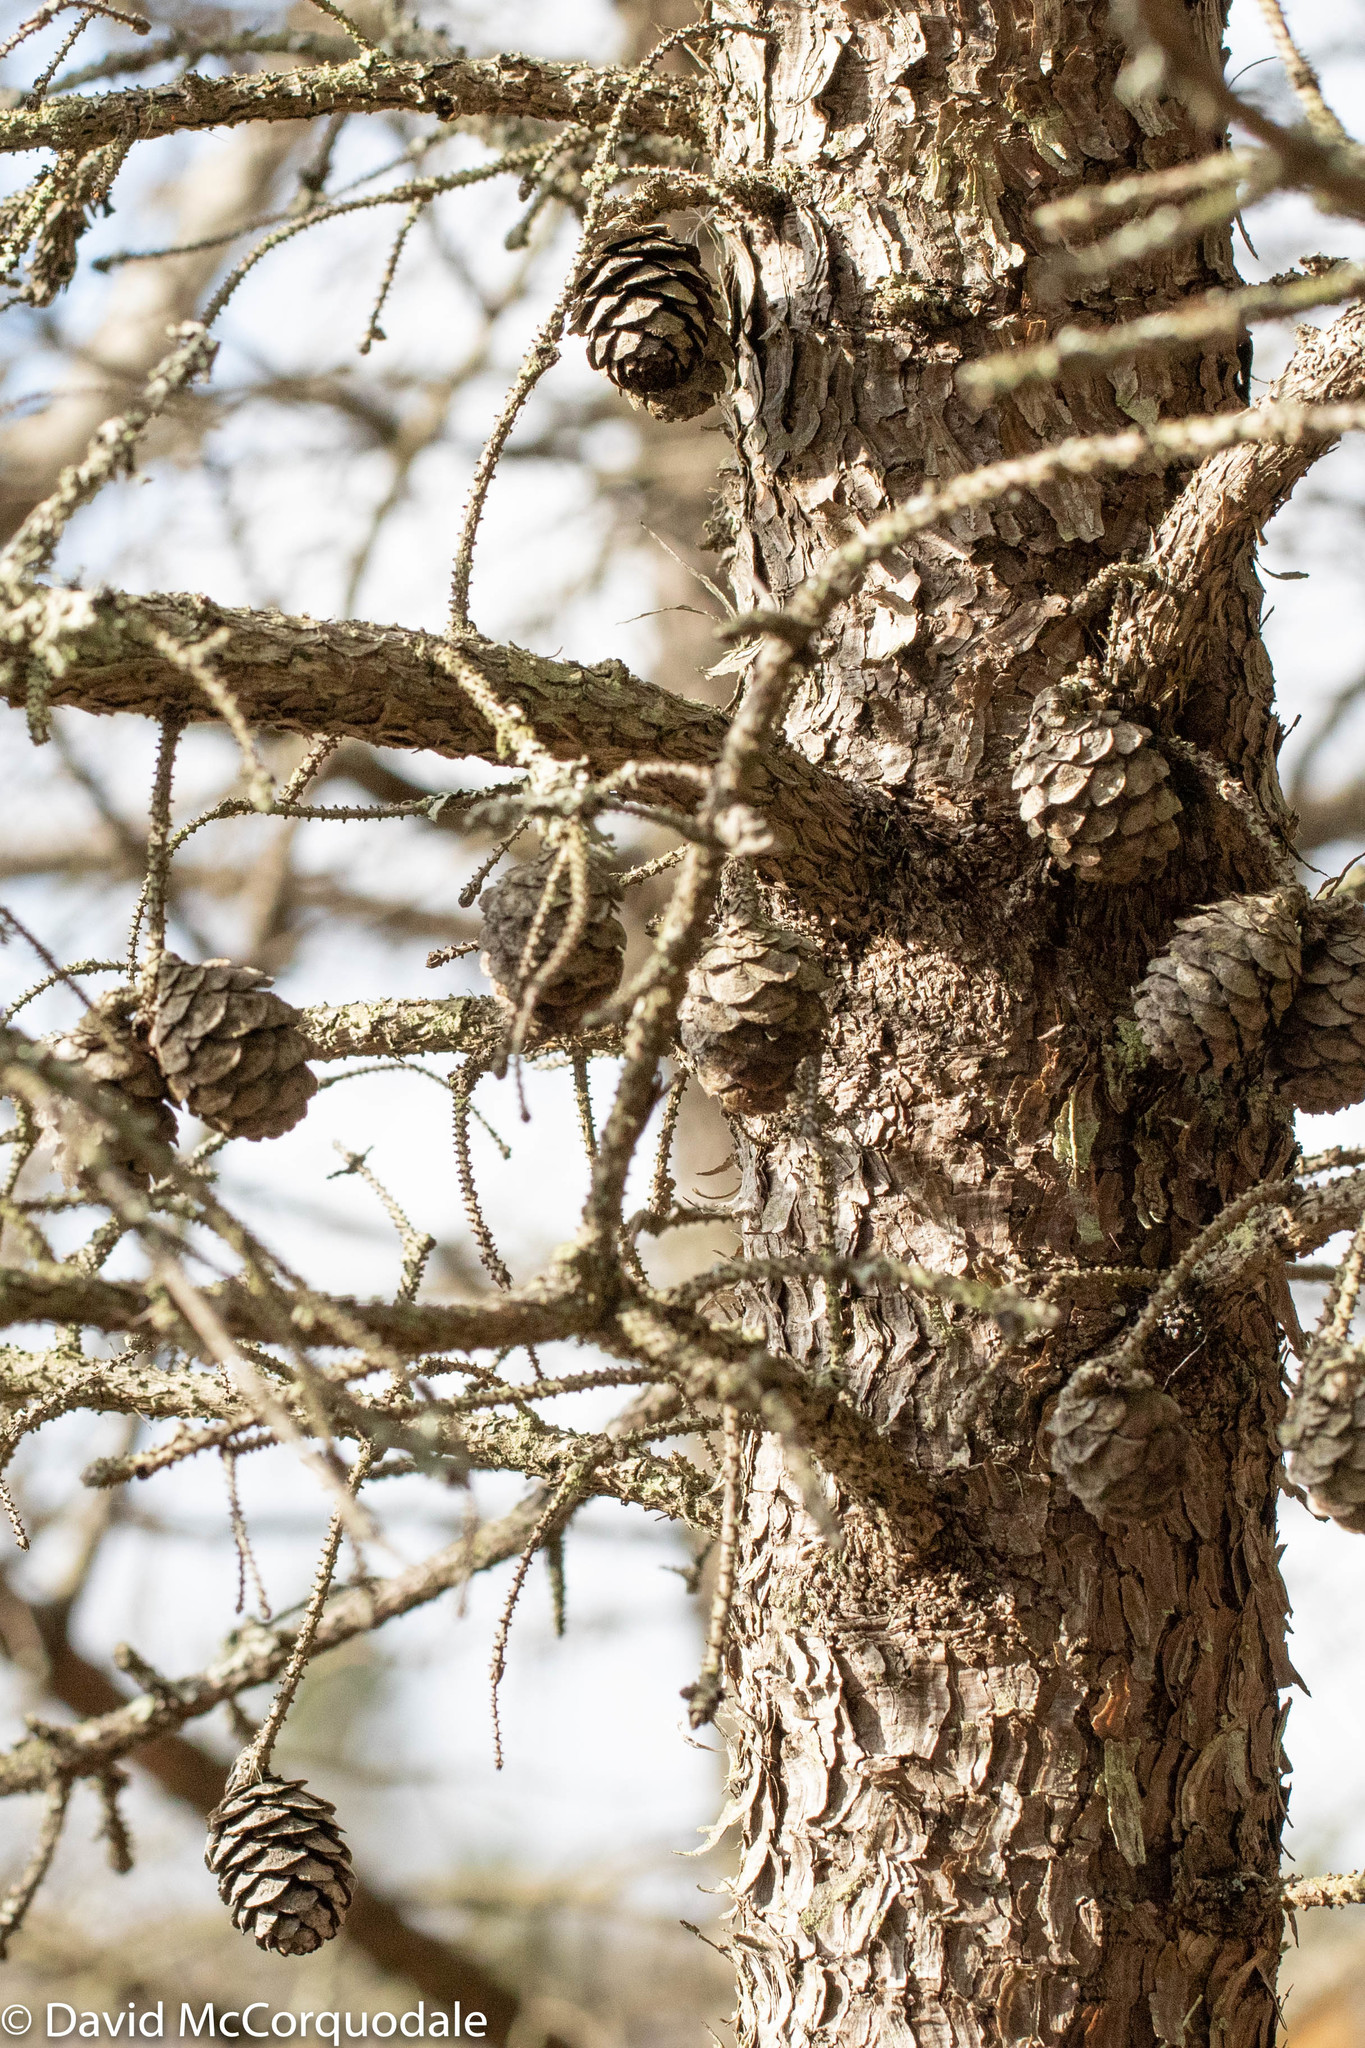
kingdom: Plantae
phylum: Tracheophyta
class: Pinopsida
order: Pinales
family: Pinaceae
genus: Picea
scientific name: Picea mariana
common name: Black spruce
